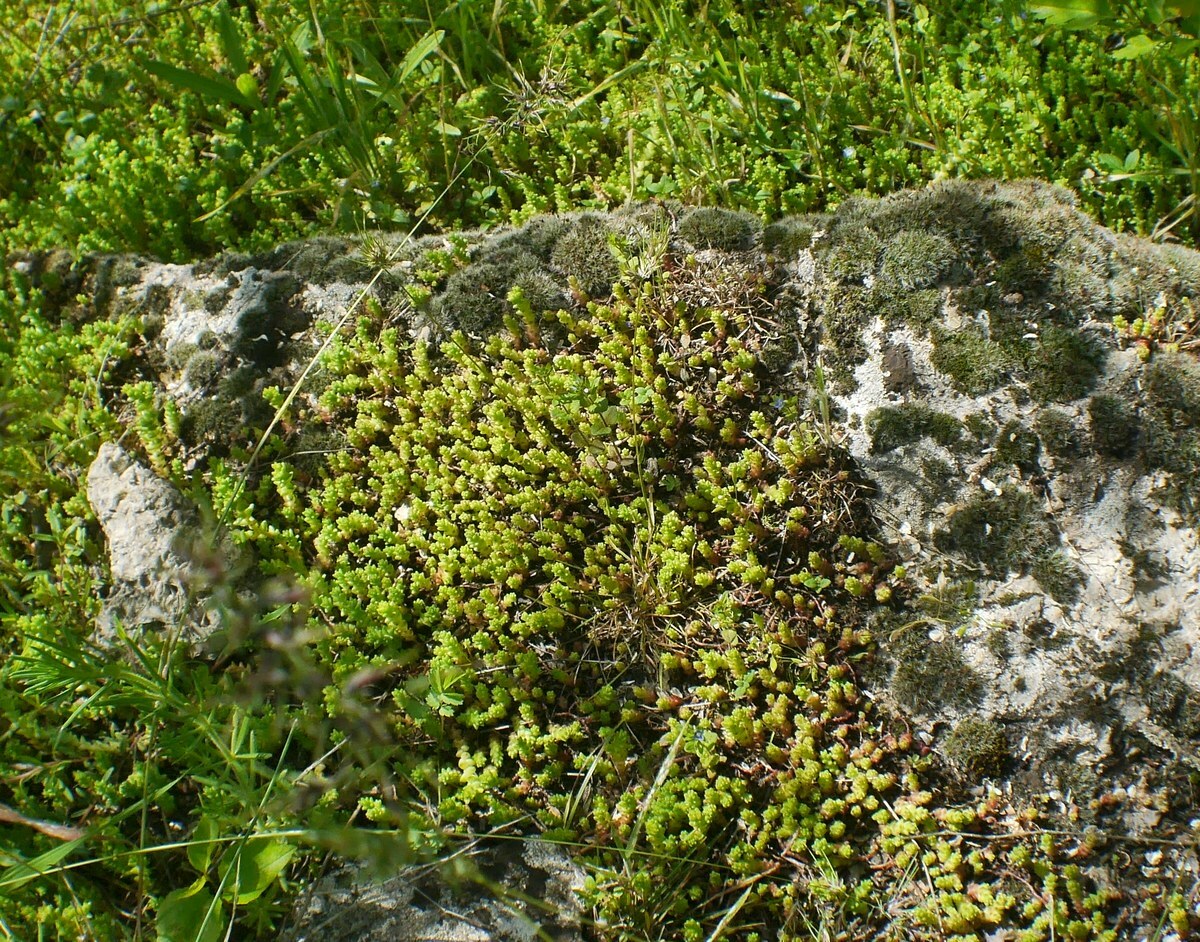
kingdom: Plantae
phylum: Tracheophyta
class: Magnoliopsida
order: Saxifragales
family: Crassulaceae
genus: Sedum
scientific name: Sedum acre
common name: Biting stonecrop
